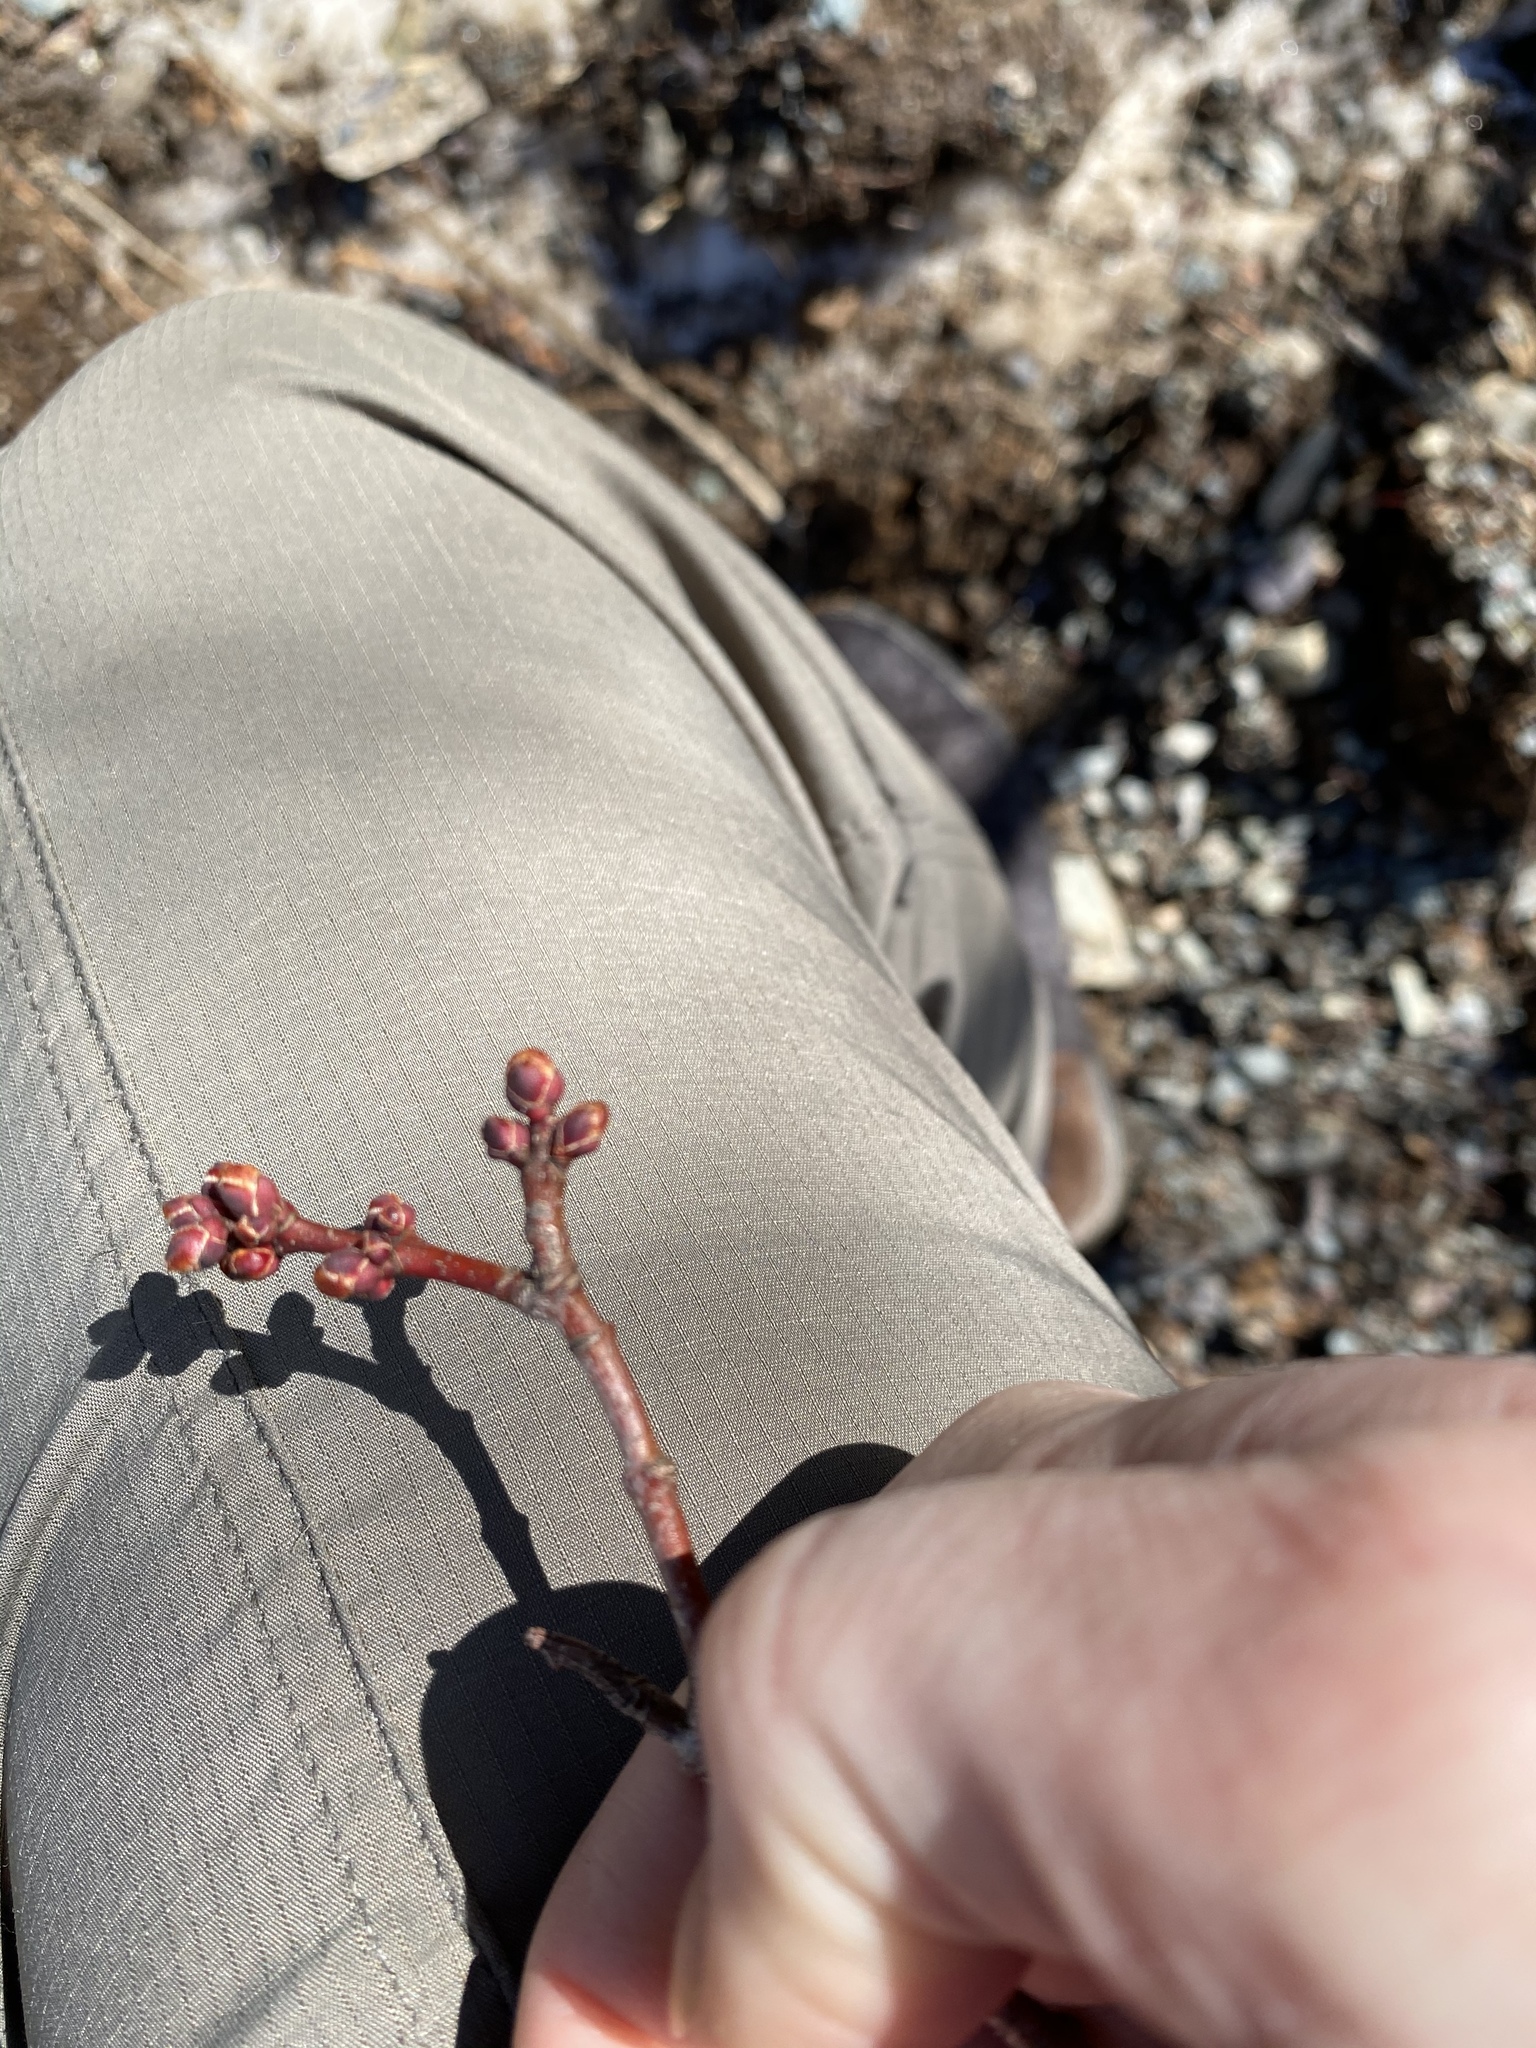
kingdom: Plantae
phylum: Tracheophyta
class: Magnoliopsida
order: Sapindales
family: Sapindaceae
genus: Acer
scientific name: Acer rubrum
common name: Red maple
